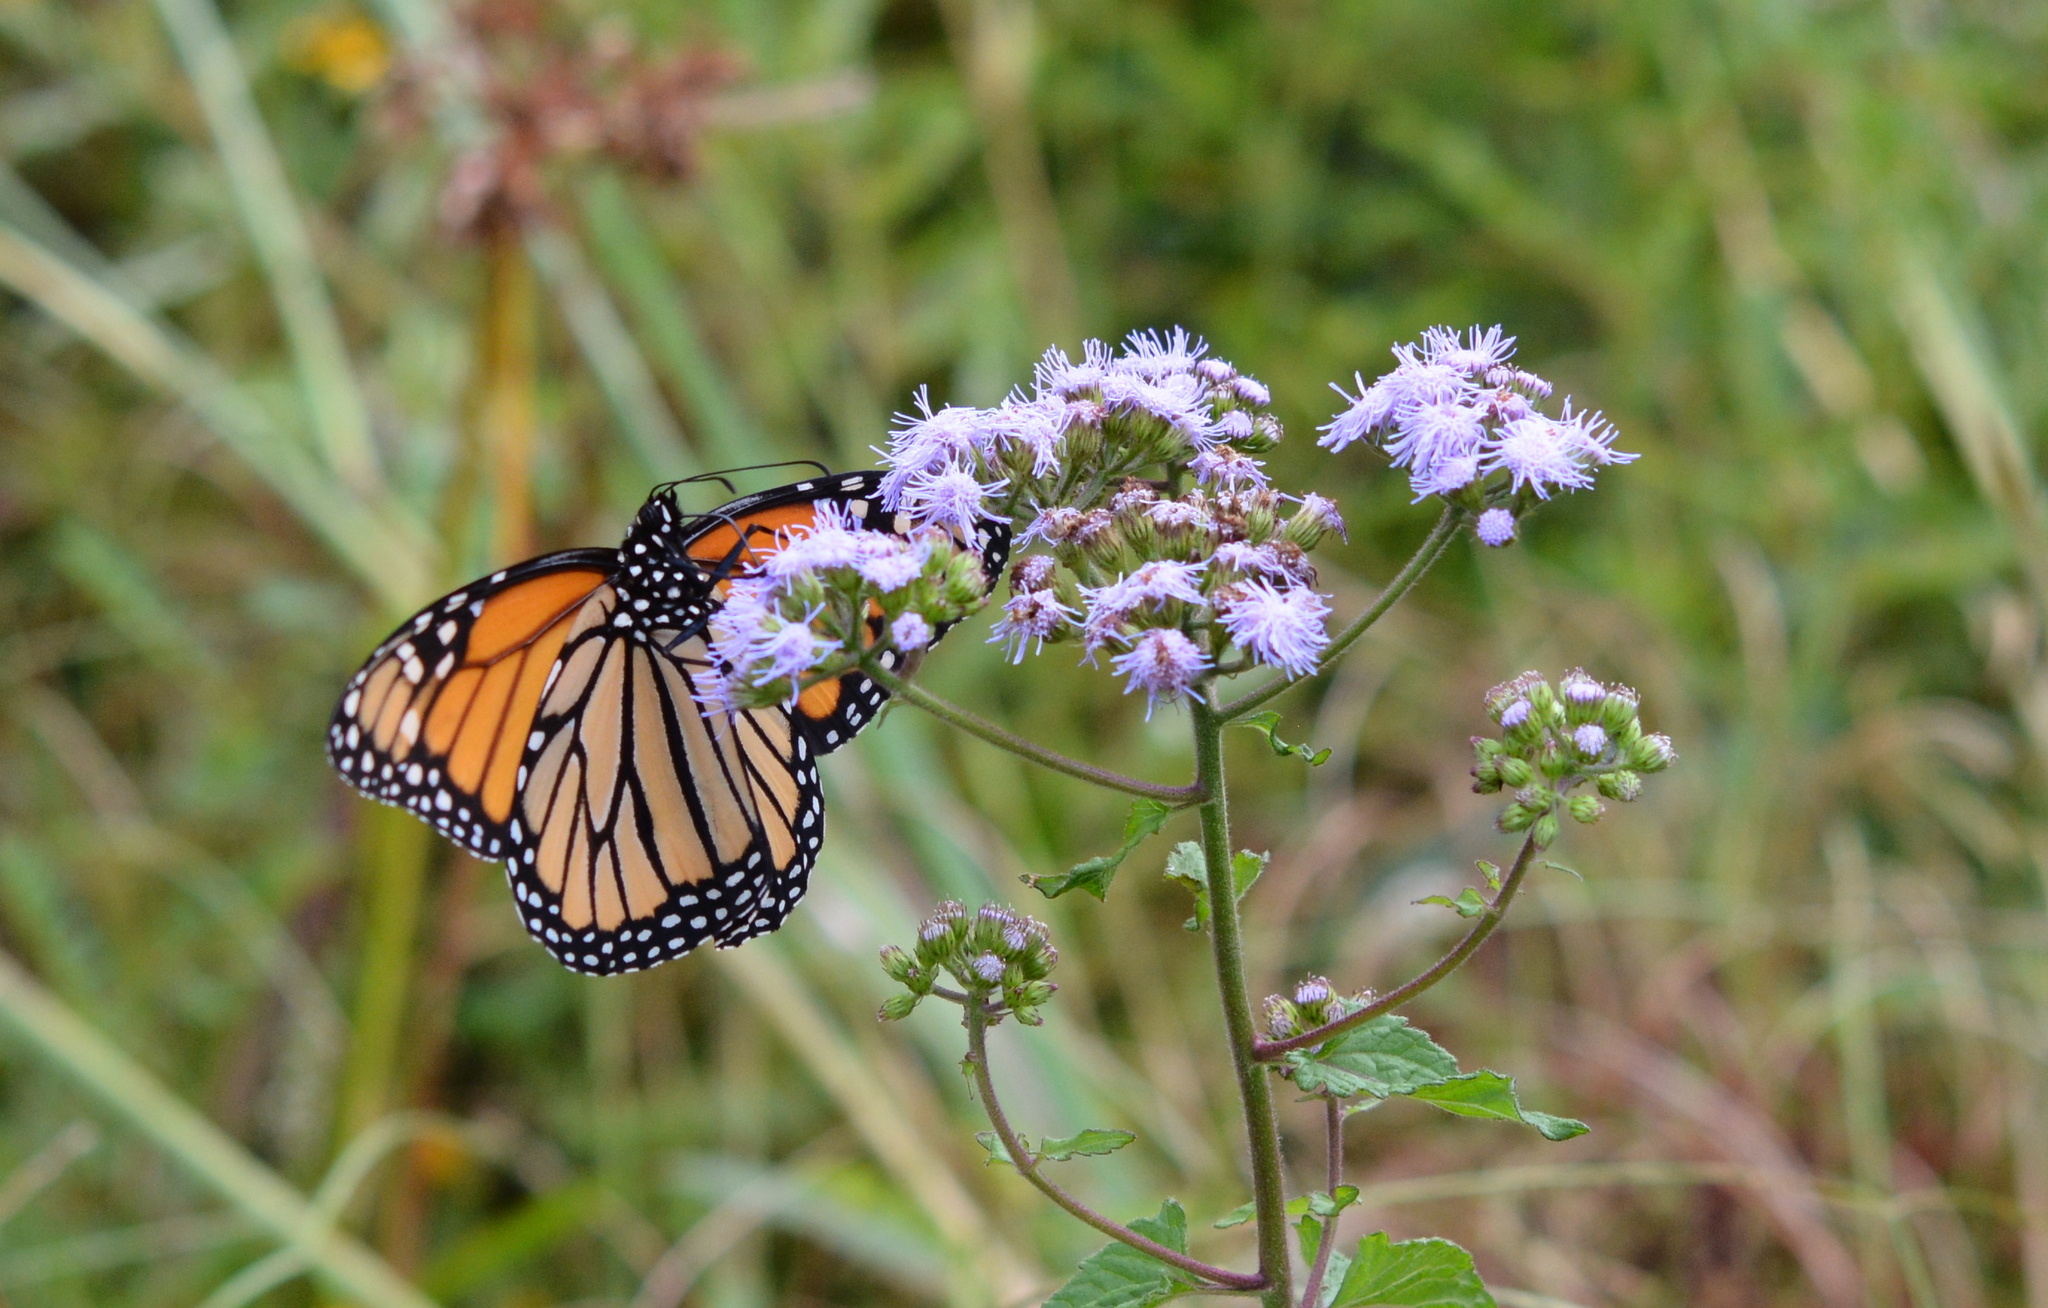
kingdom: Animalia
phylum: Arthropoda
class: Insecta
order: Lepidoptera
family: Nymphalidae
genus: Danaus
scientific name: Danaus plexippus
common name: Monarch
